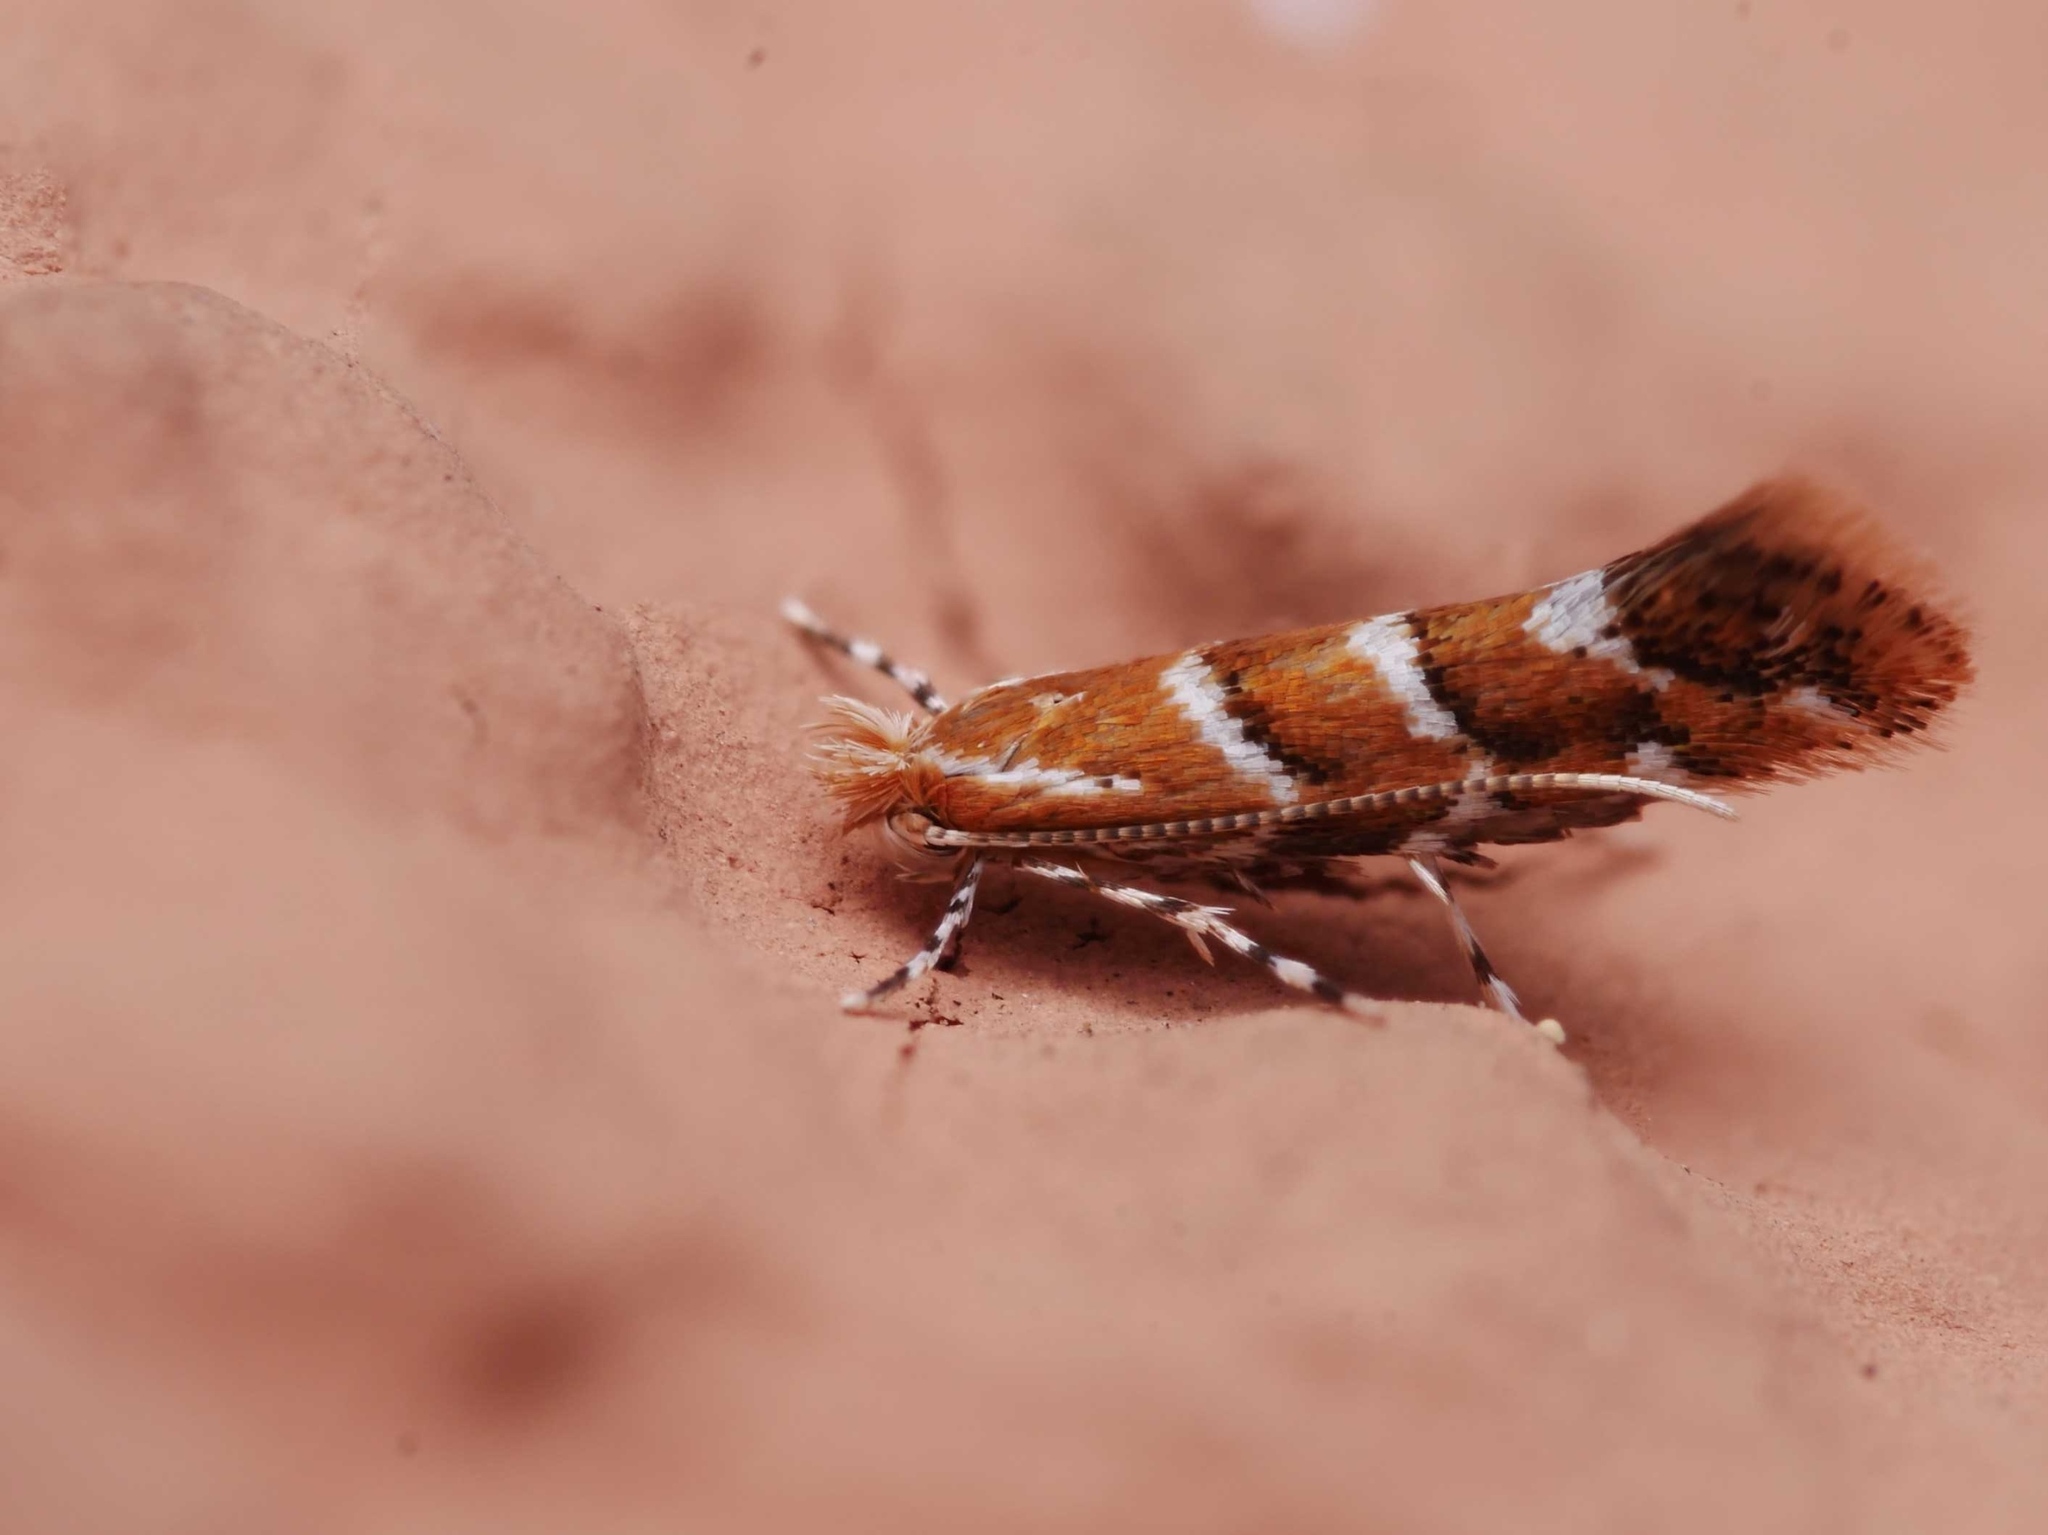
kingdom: Animalia
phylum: Arthropoda
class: Insecta
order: Lepidoptera
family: Gracillariidae
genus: Cameraria
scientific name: Cameraria ohridella
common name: Horse-chestnut leaf-miner
